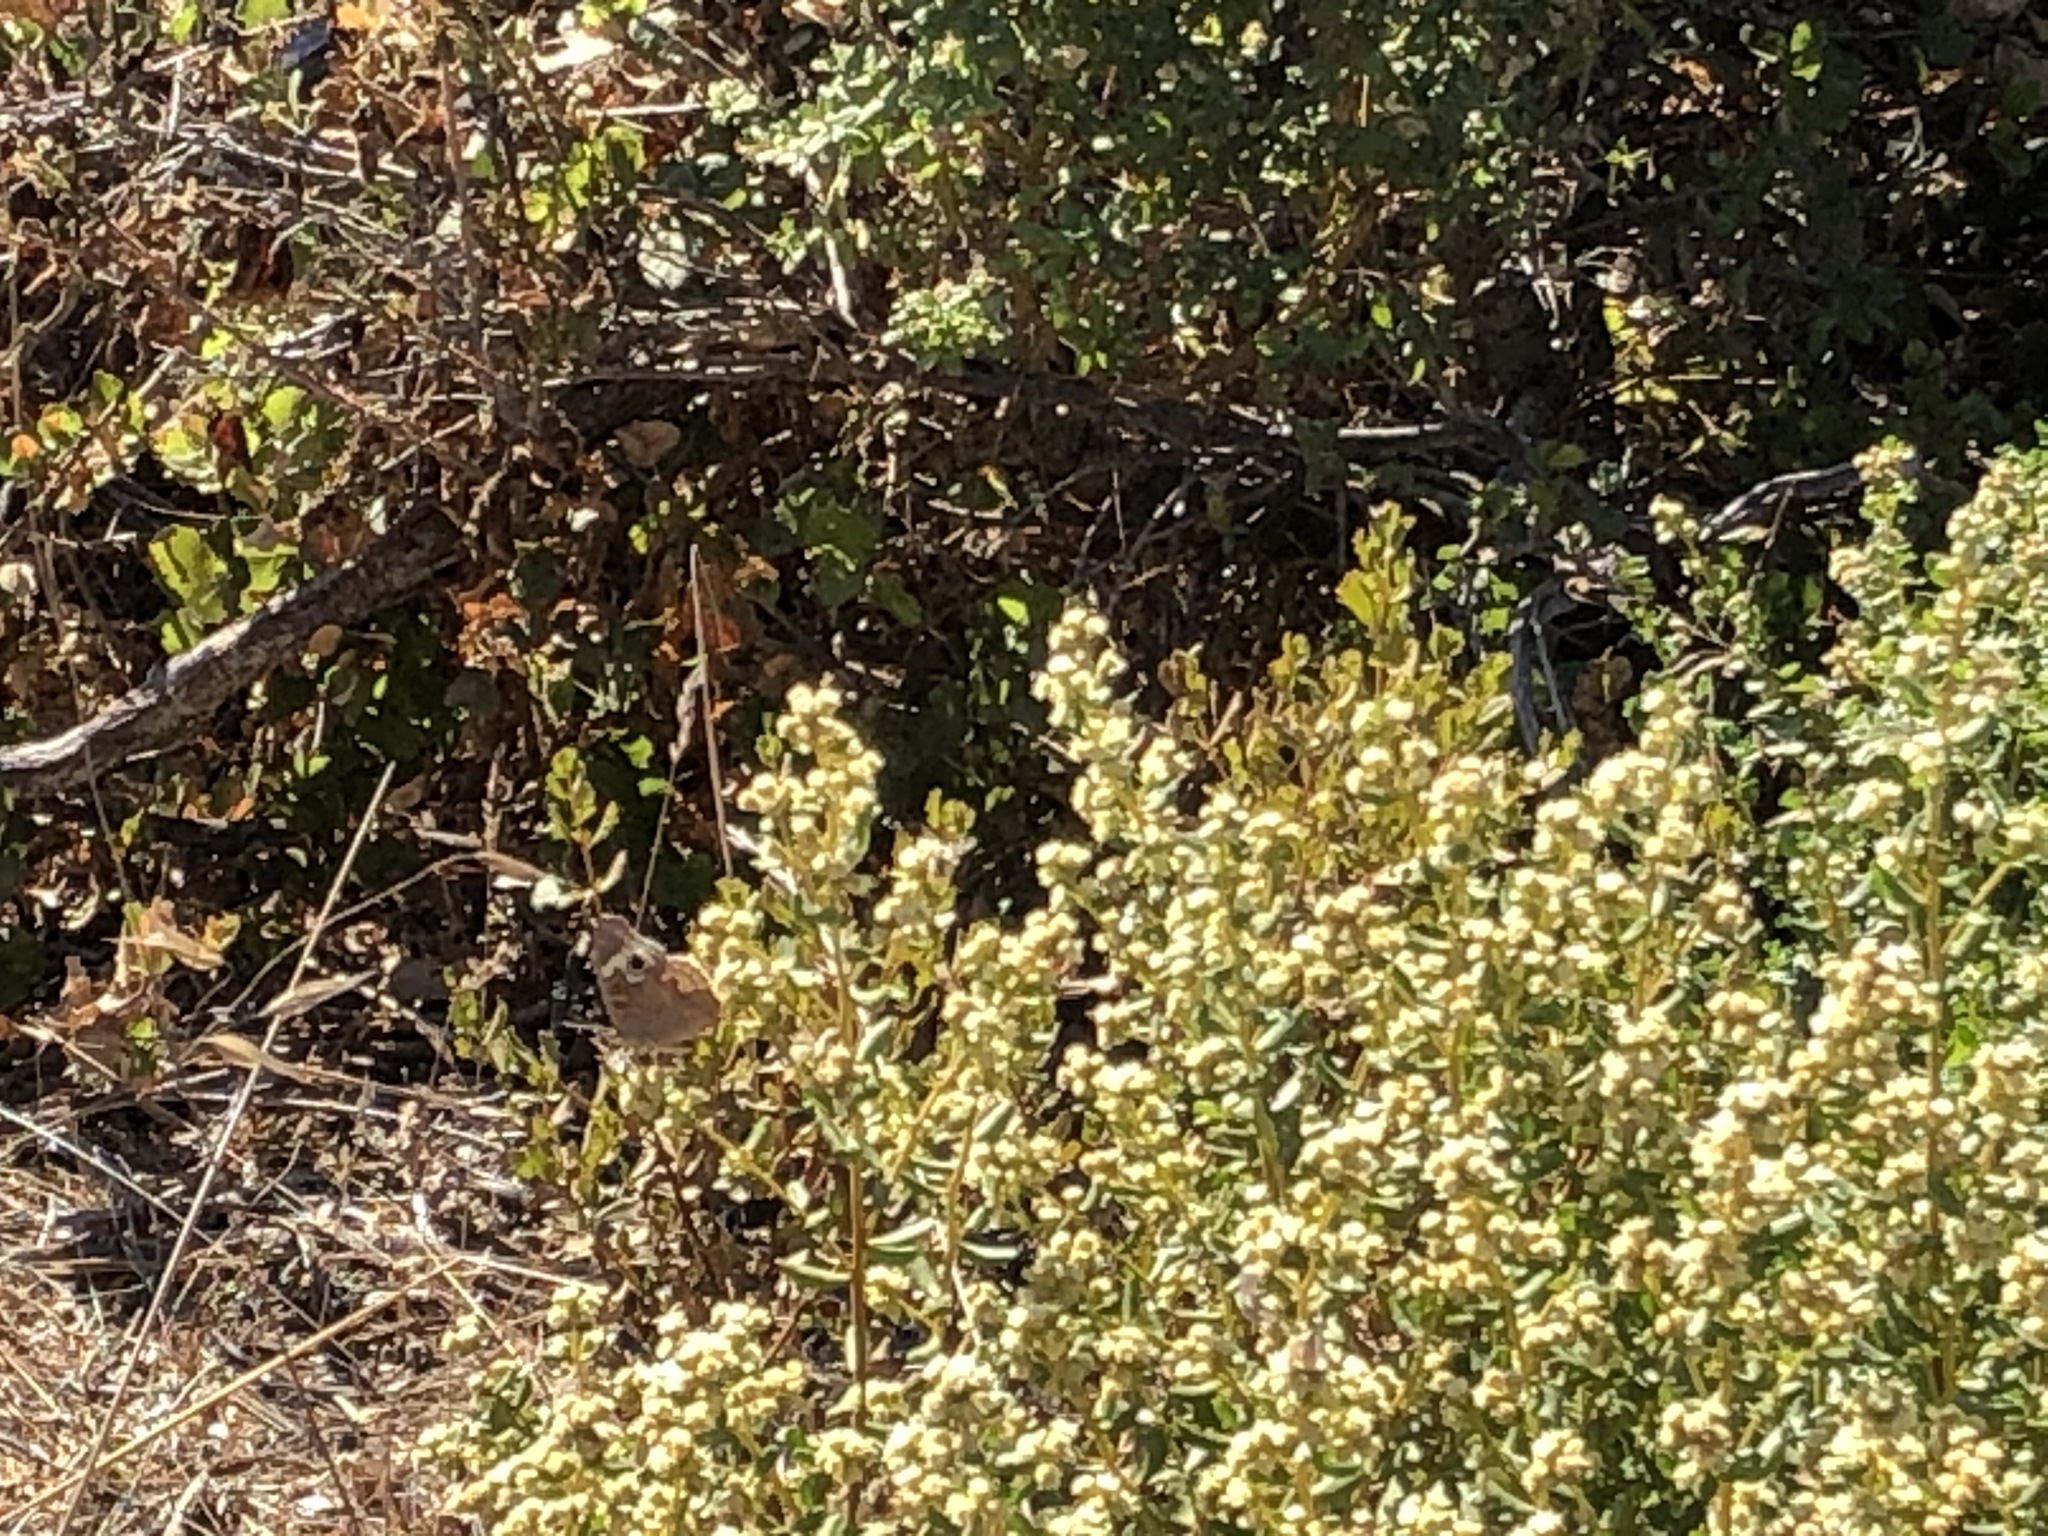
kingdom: Animalia
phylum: Arthropoda
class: Insecta
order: Lepidoptera
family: Nymphalidae
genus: Junonia
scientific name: Junonia grisea
